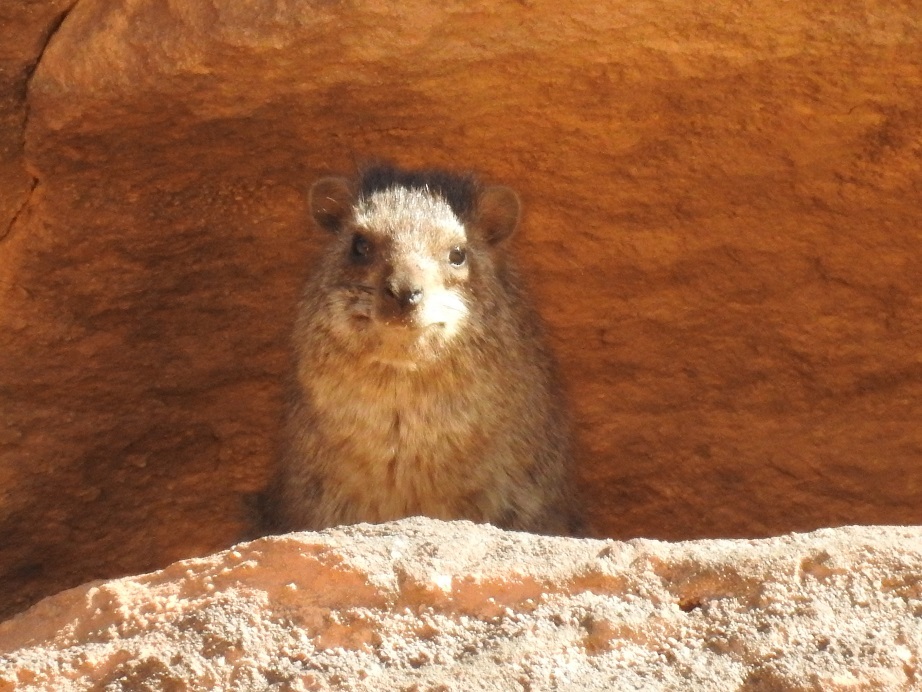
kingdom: Animalia
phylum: Chordata
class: Mammalia
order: Hyracoidea
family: Procaviidae
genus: Procavia
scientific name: Procavia capensis
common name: Rock hyrax
